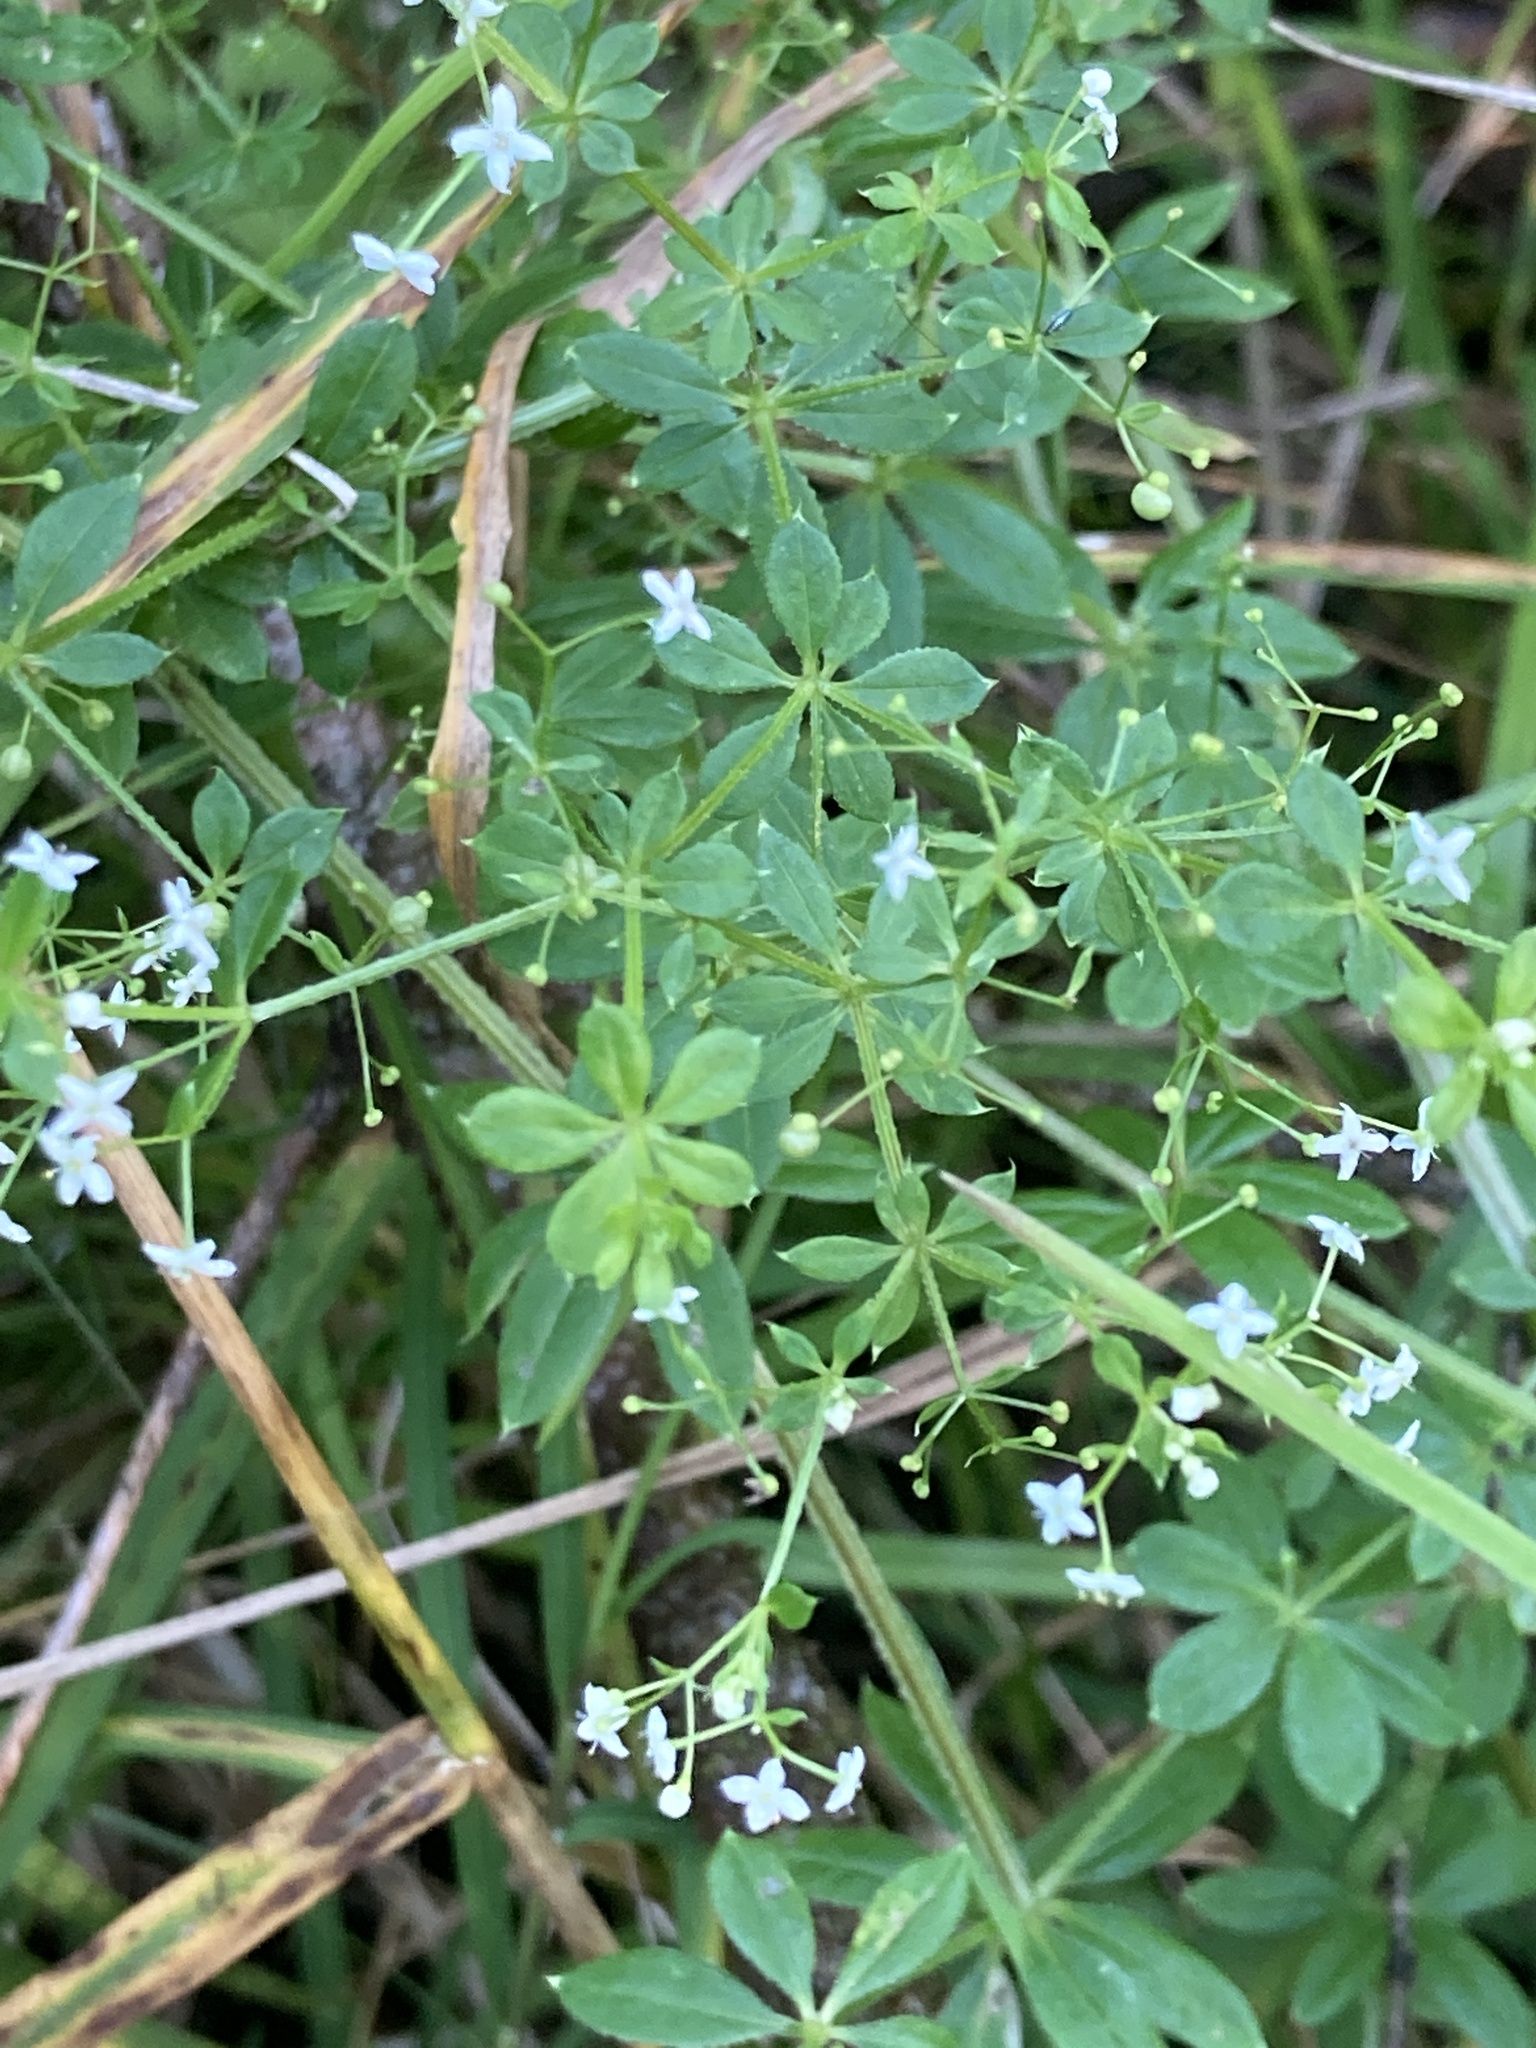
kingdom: Plantae
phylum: Tracheophyta
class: Magnoliopsida
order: Gentianales
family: Rubiaceae
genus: Galium
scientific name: Galium asprellum
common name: Rough bedstraw
